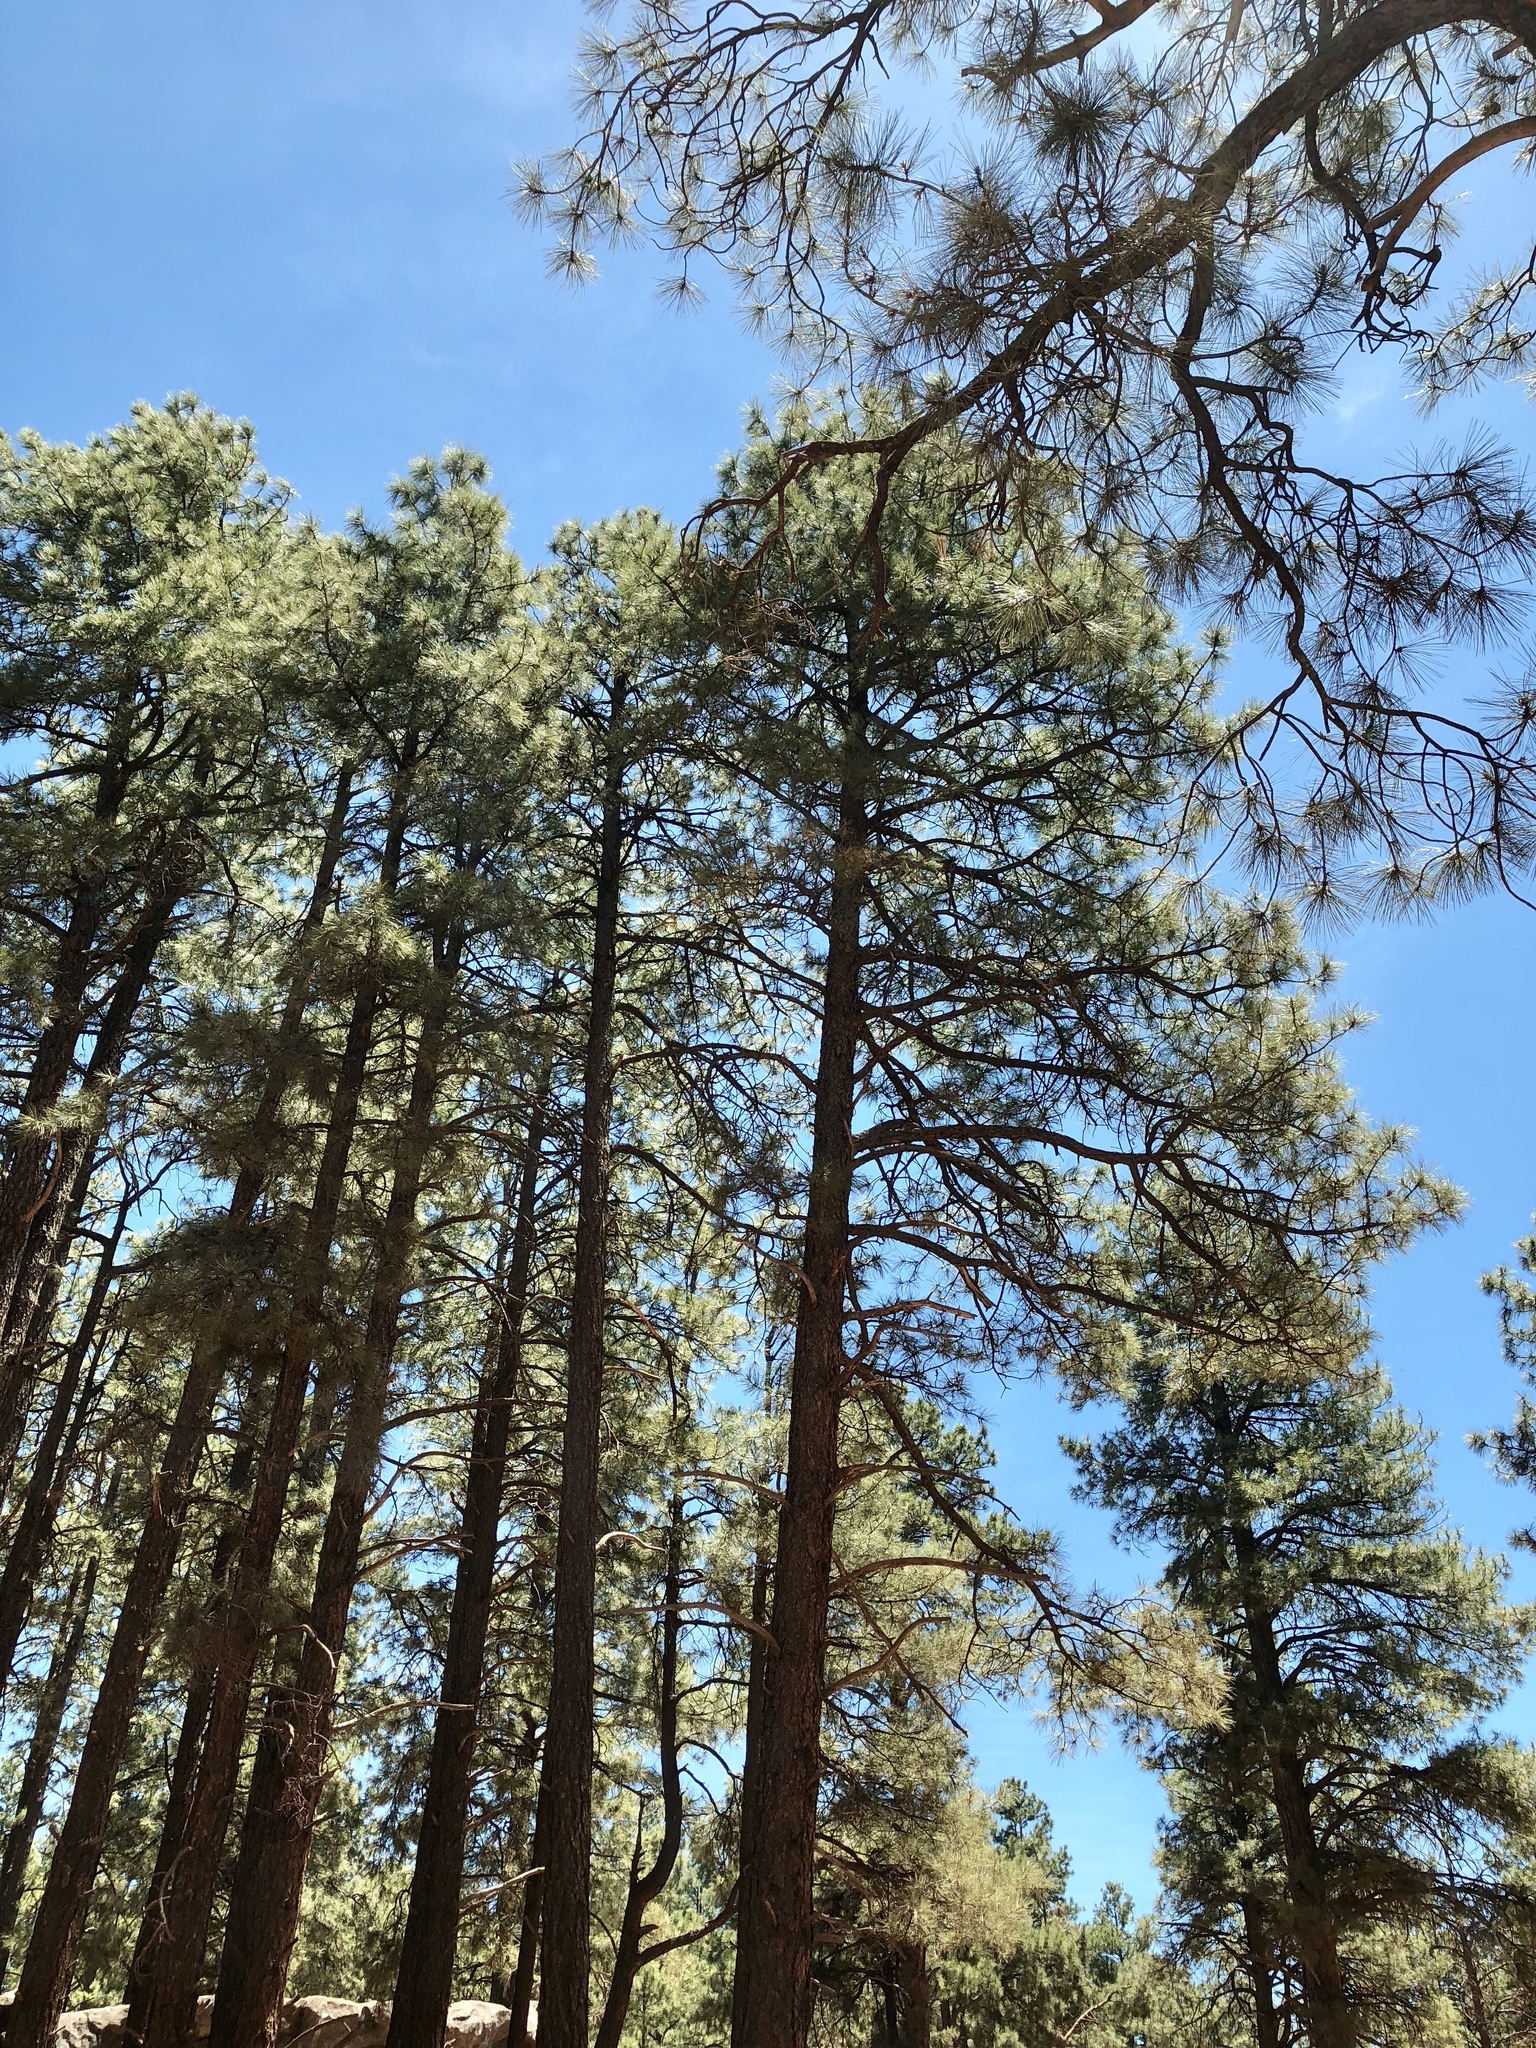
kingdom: Plantae
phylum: Tracheophyta
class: Pinopsida
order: Pinales
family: Pinaceae
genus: Pinus
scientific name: Pinus ponderosa
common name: Western yellow-pine
